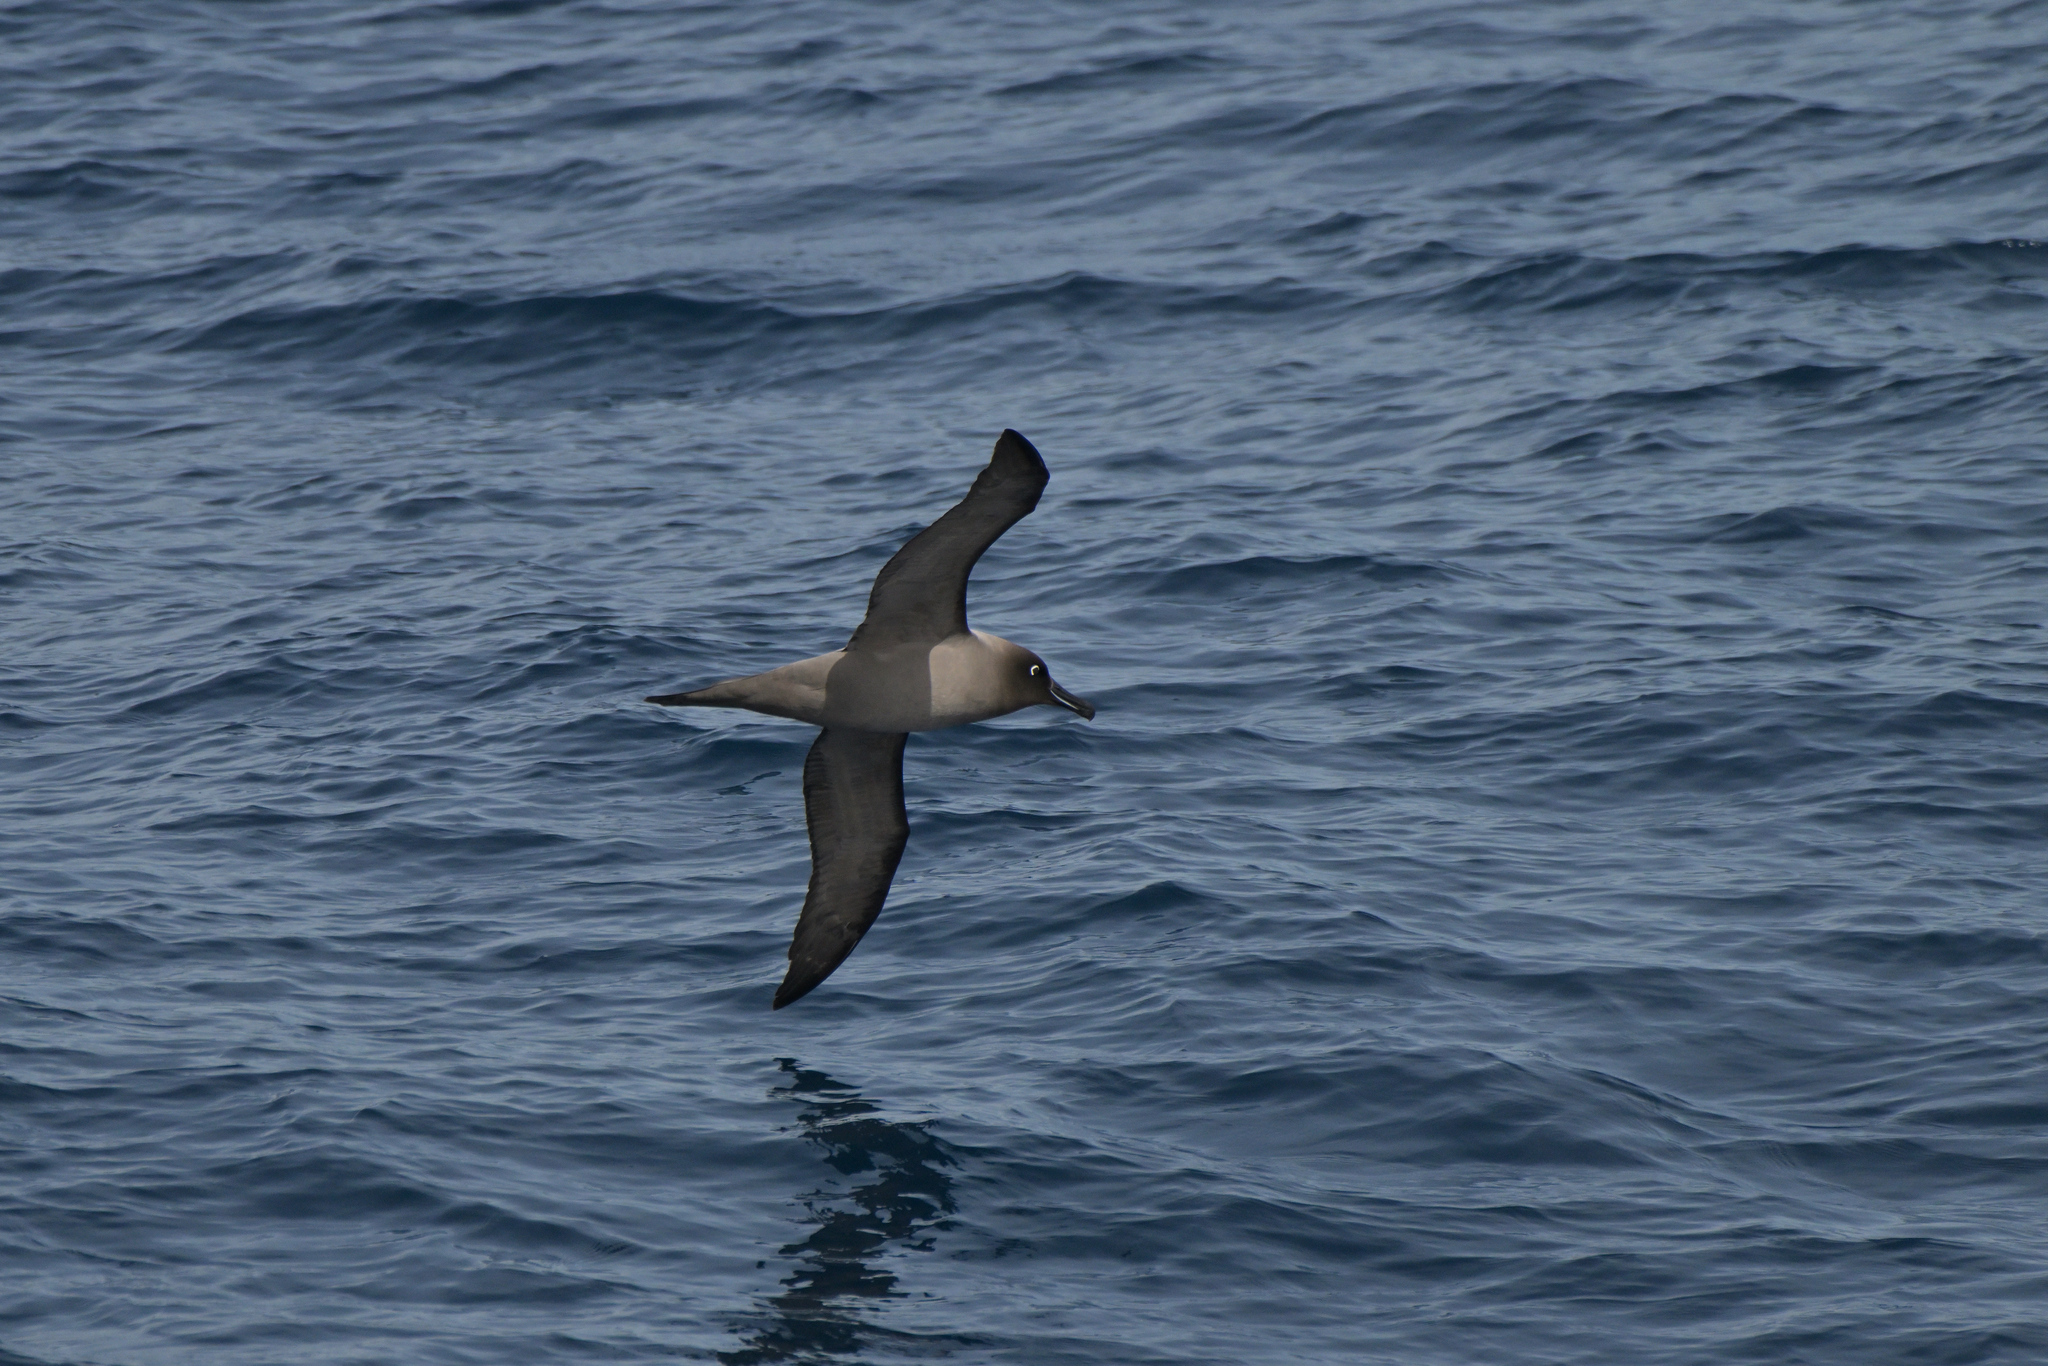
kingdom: Animalia
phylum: Chordata
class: Aves
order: Procellariiformes
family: Diomedeidae
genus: Phoebetria
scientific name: Phoebetria palpebrata
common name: Light-mantled albatross
